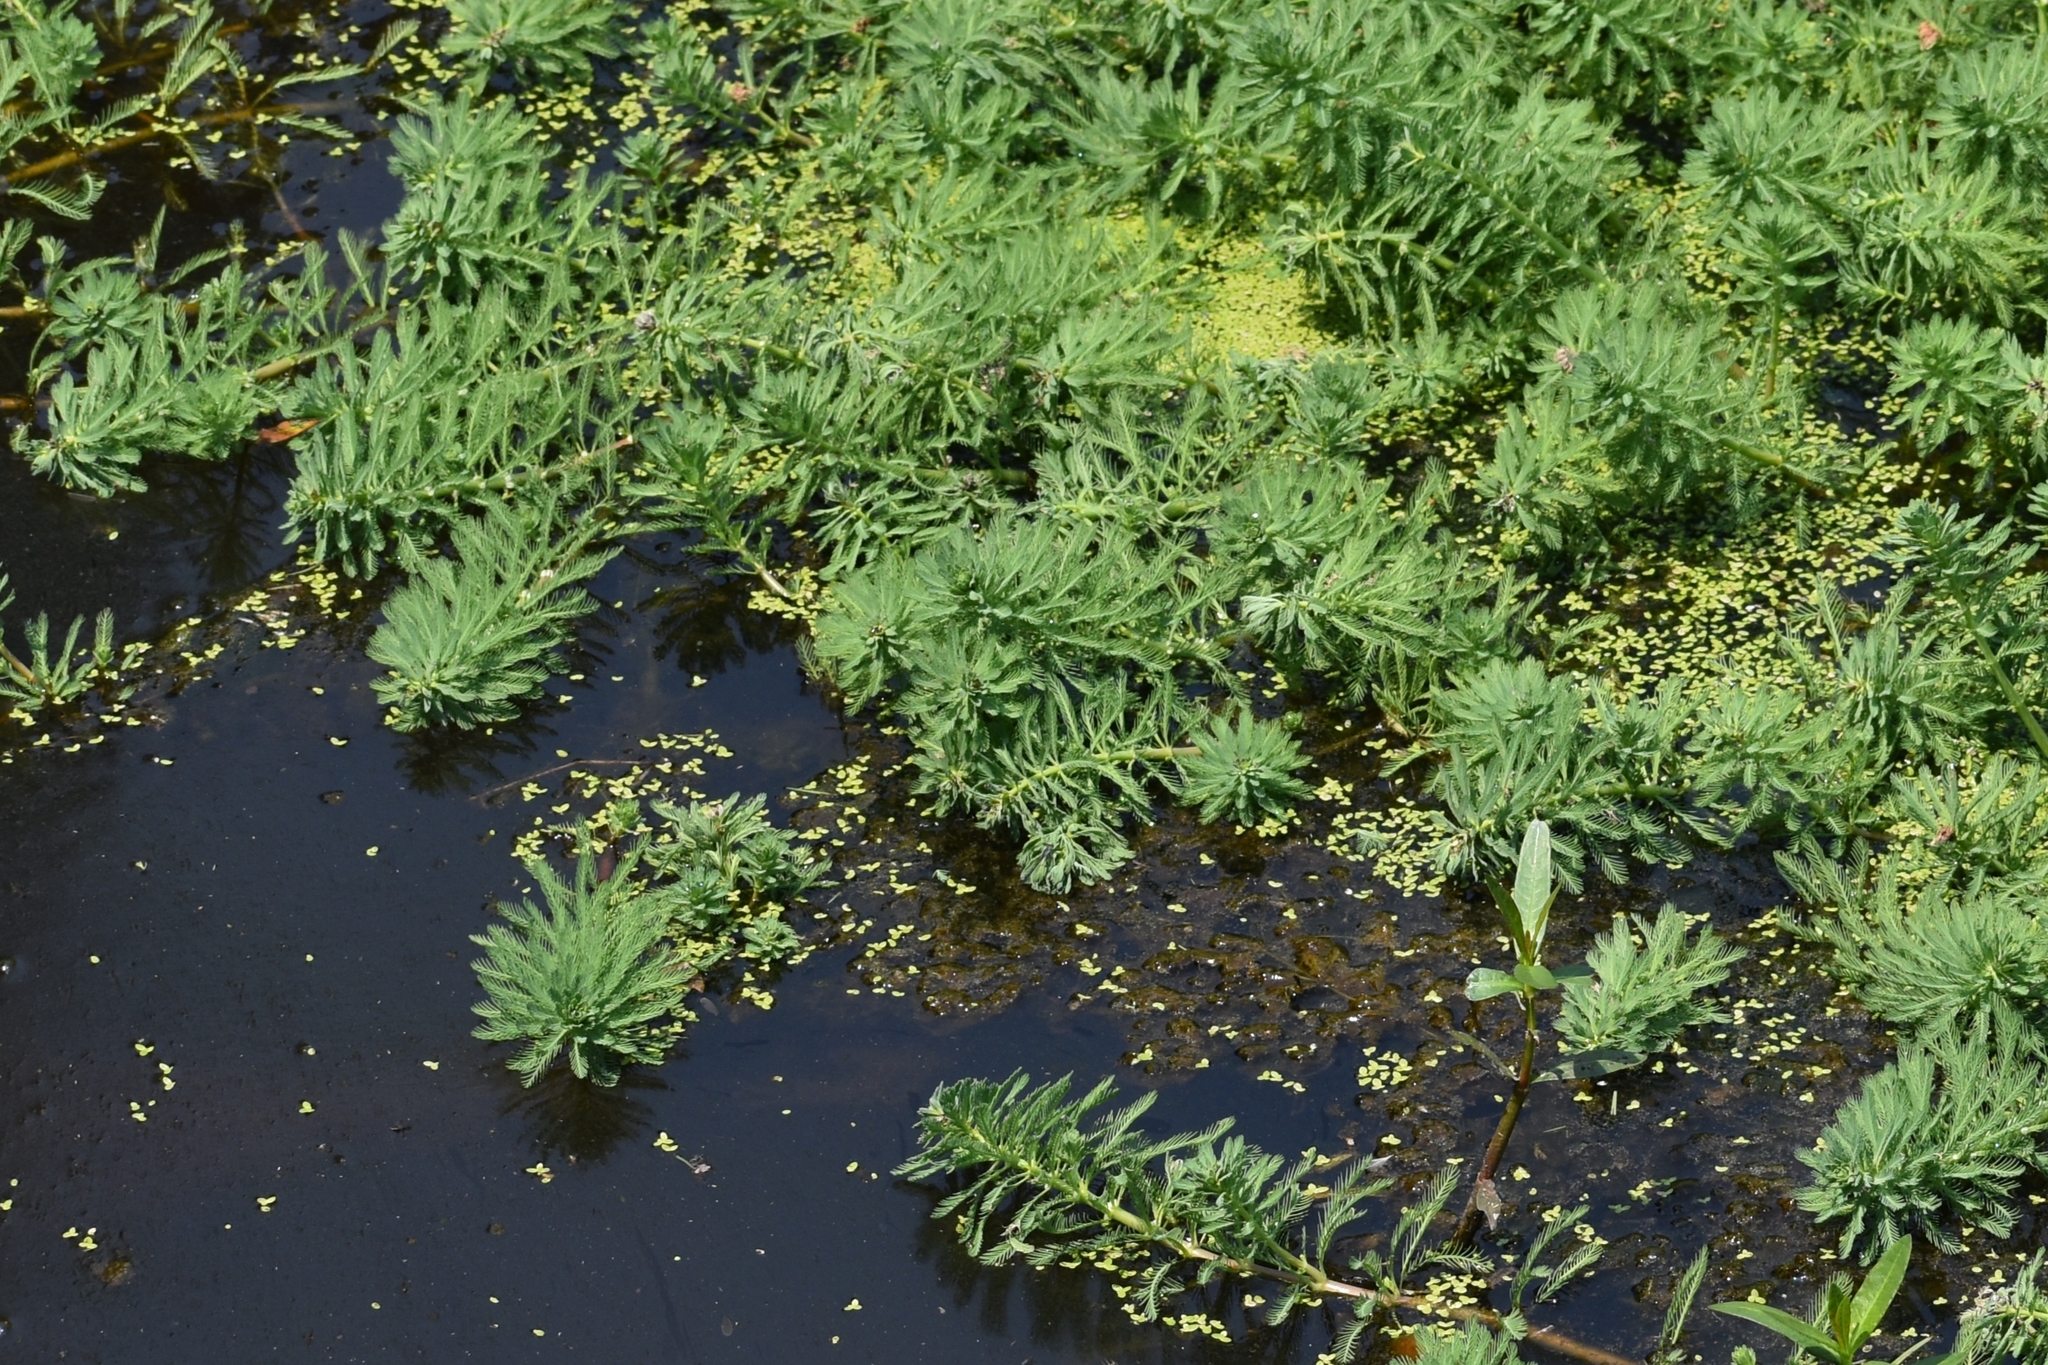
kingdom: Plantae
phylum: Tracheophyta
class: Magnoliopsida
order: Saxifragales
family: Haloragaceae
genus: Myriophyllum
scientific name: Myriophyllum aquaticum
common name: Parrot's feather
